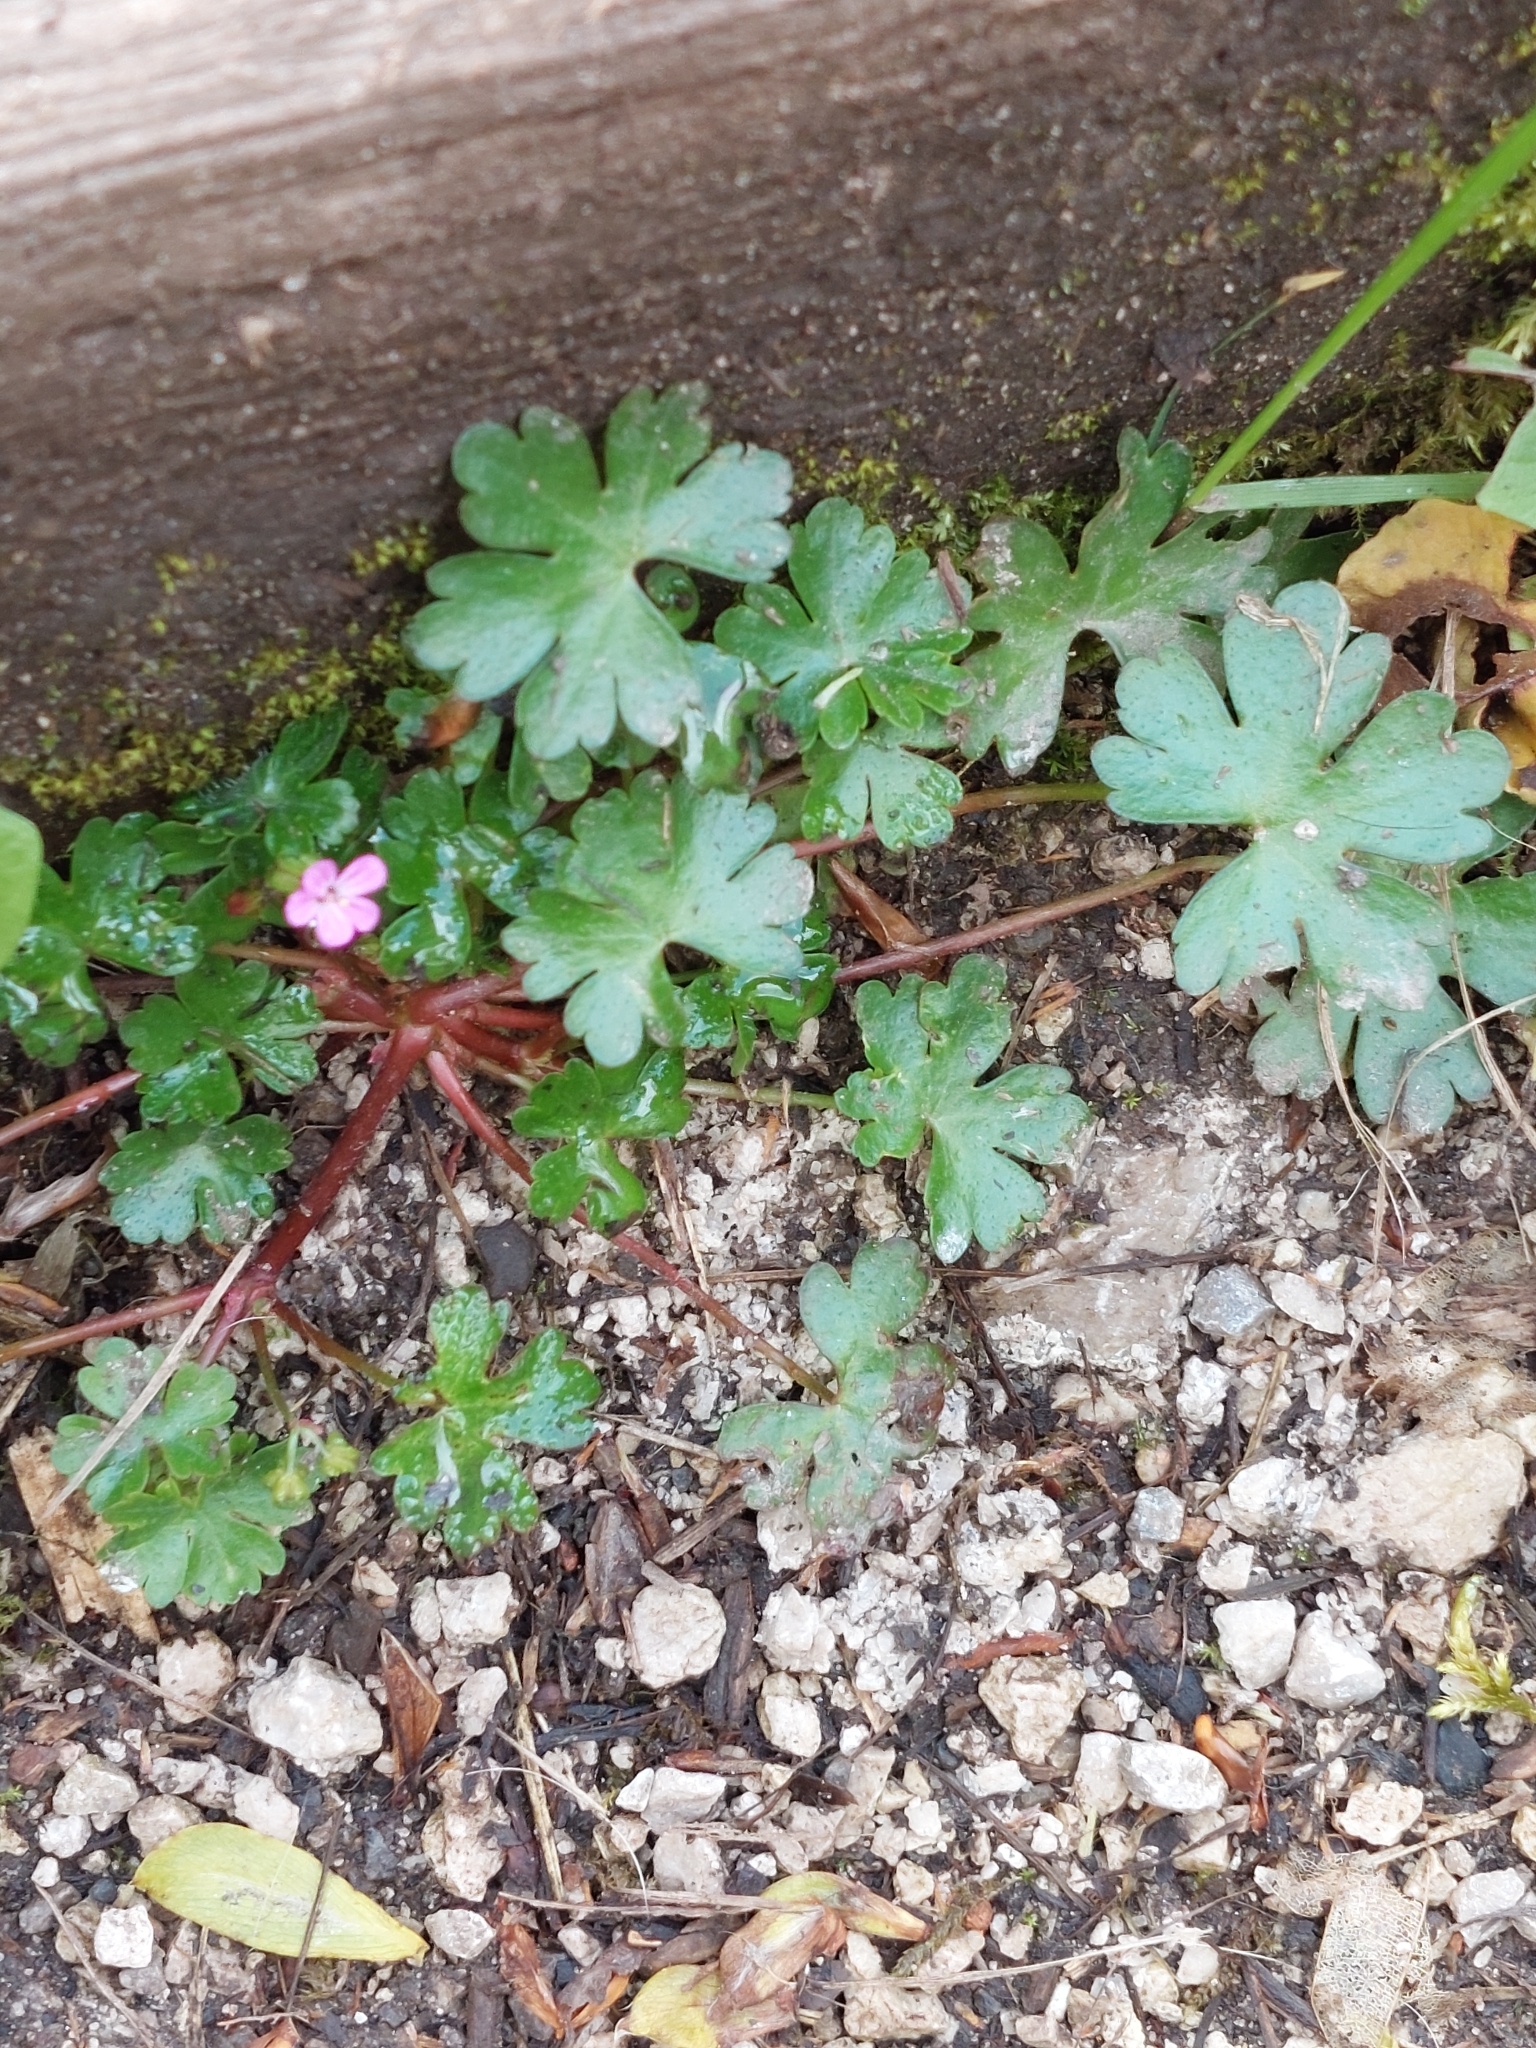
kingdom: Plantae
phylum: Tracheophyta
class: Magnoliopsida
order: Geraniales
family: Geraniaceae
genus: Geranium
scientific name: Geranium lucidum
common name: Shining crane's-bill
